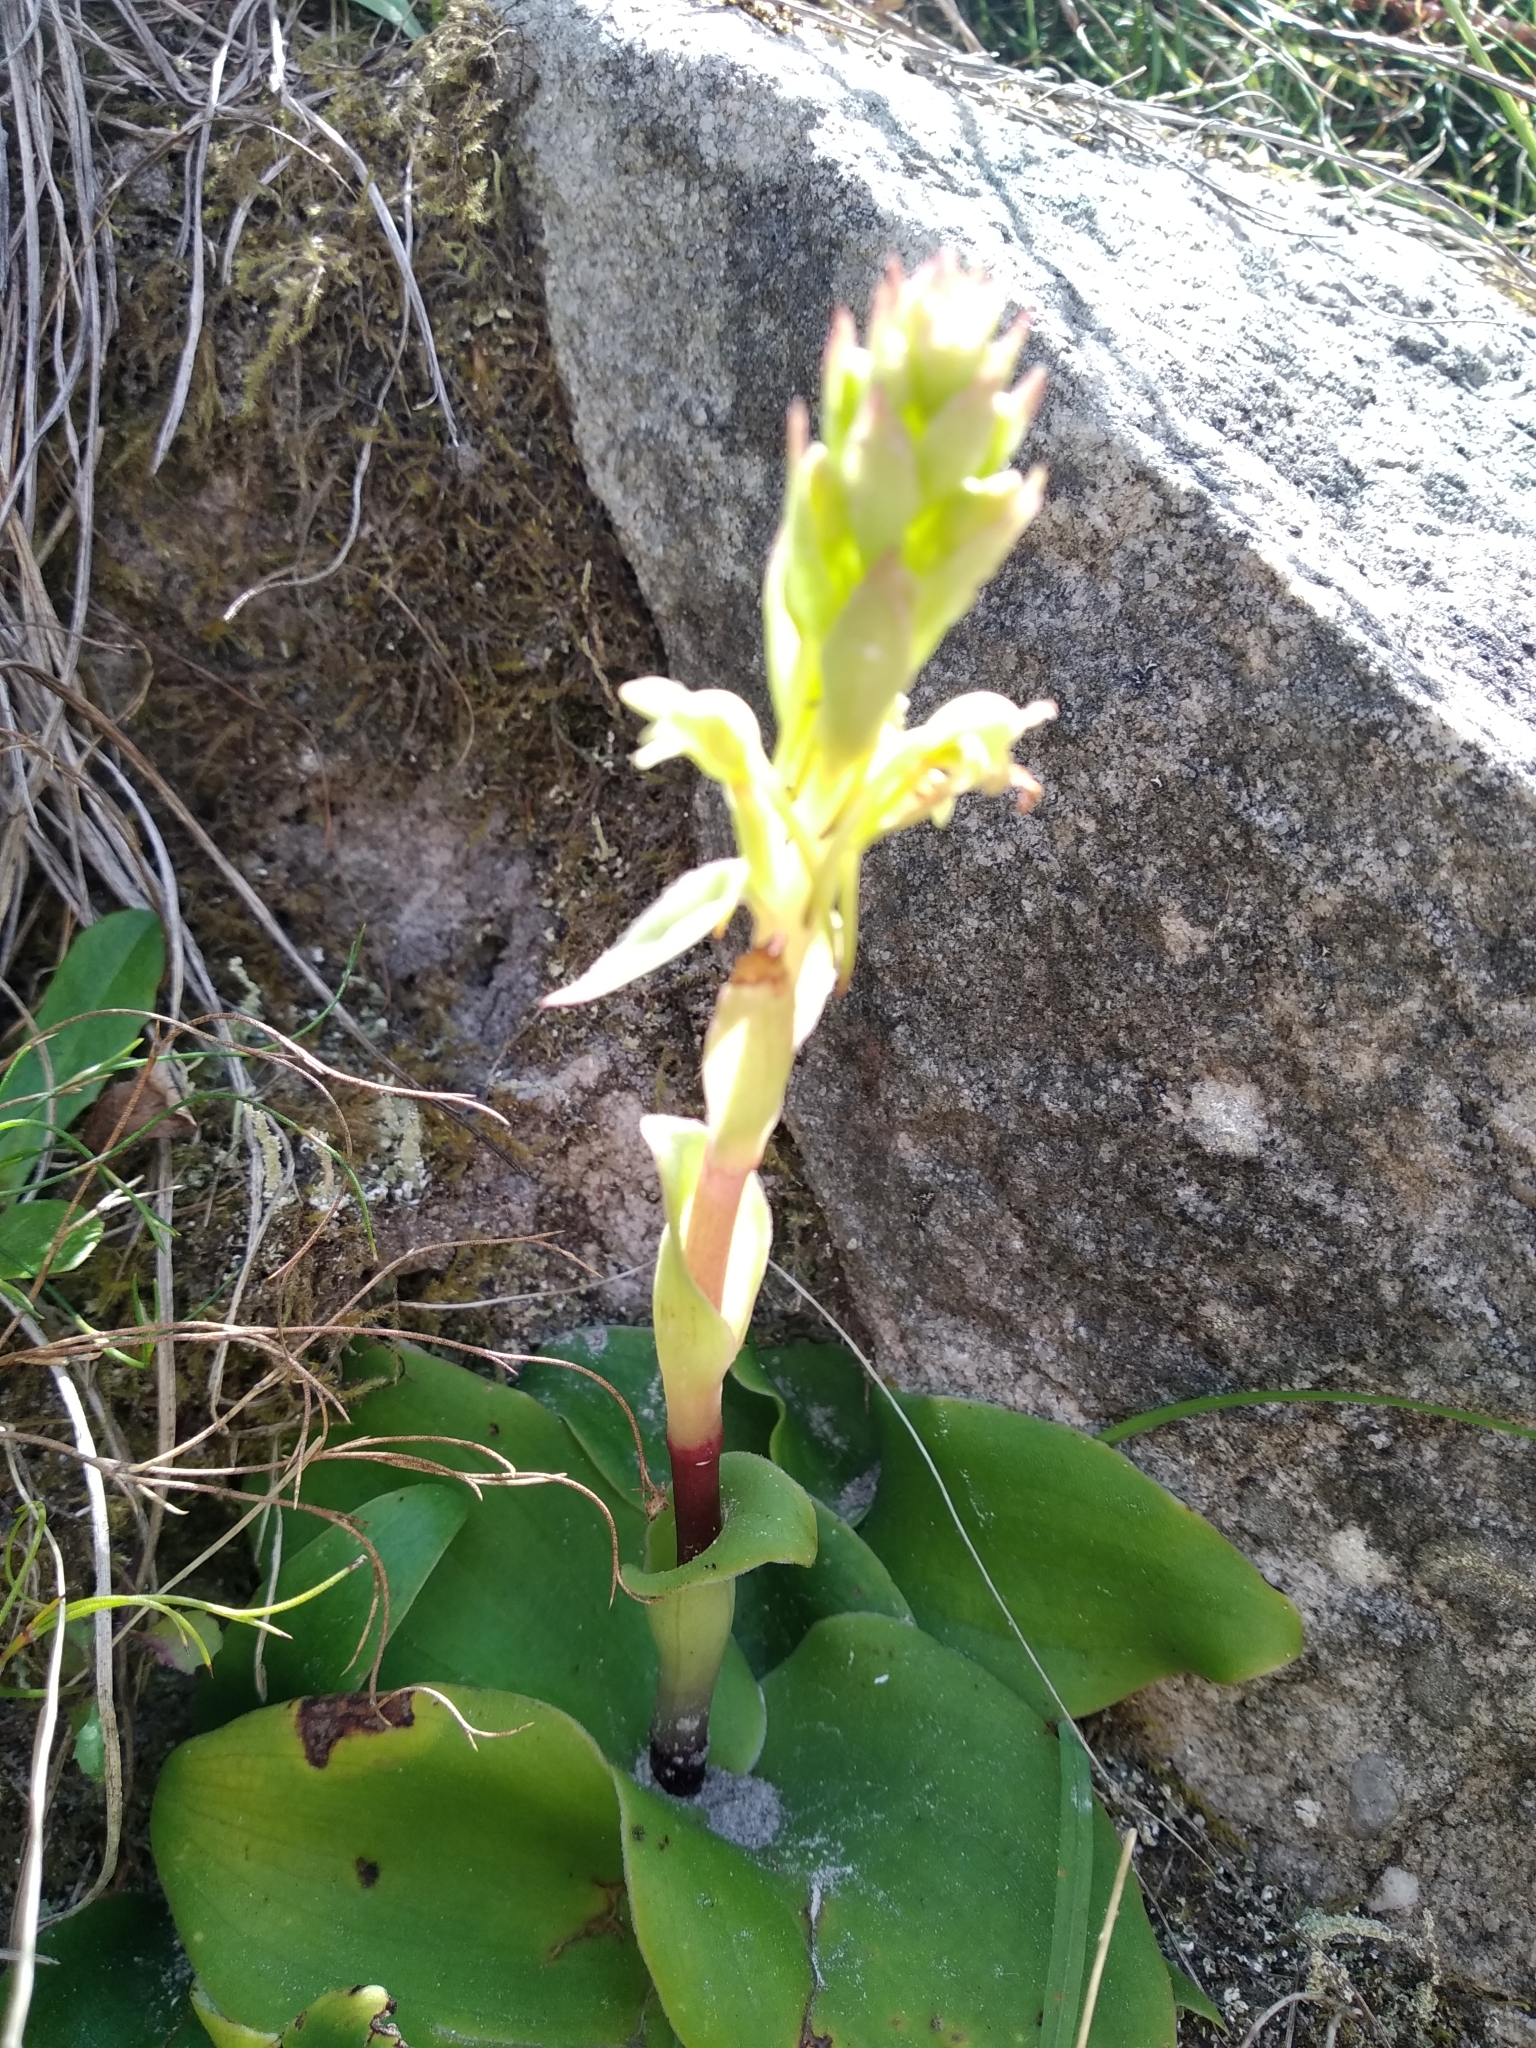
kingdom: Plantae
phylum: Tracheophyta
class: Liliopsida
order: Asparagales
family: Orchidaceae
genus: Satyrium
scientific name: Satyrium humile
